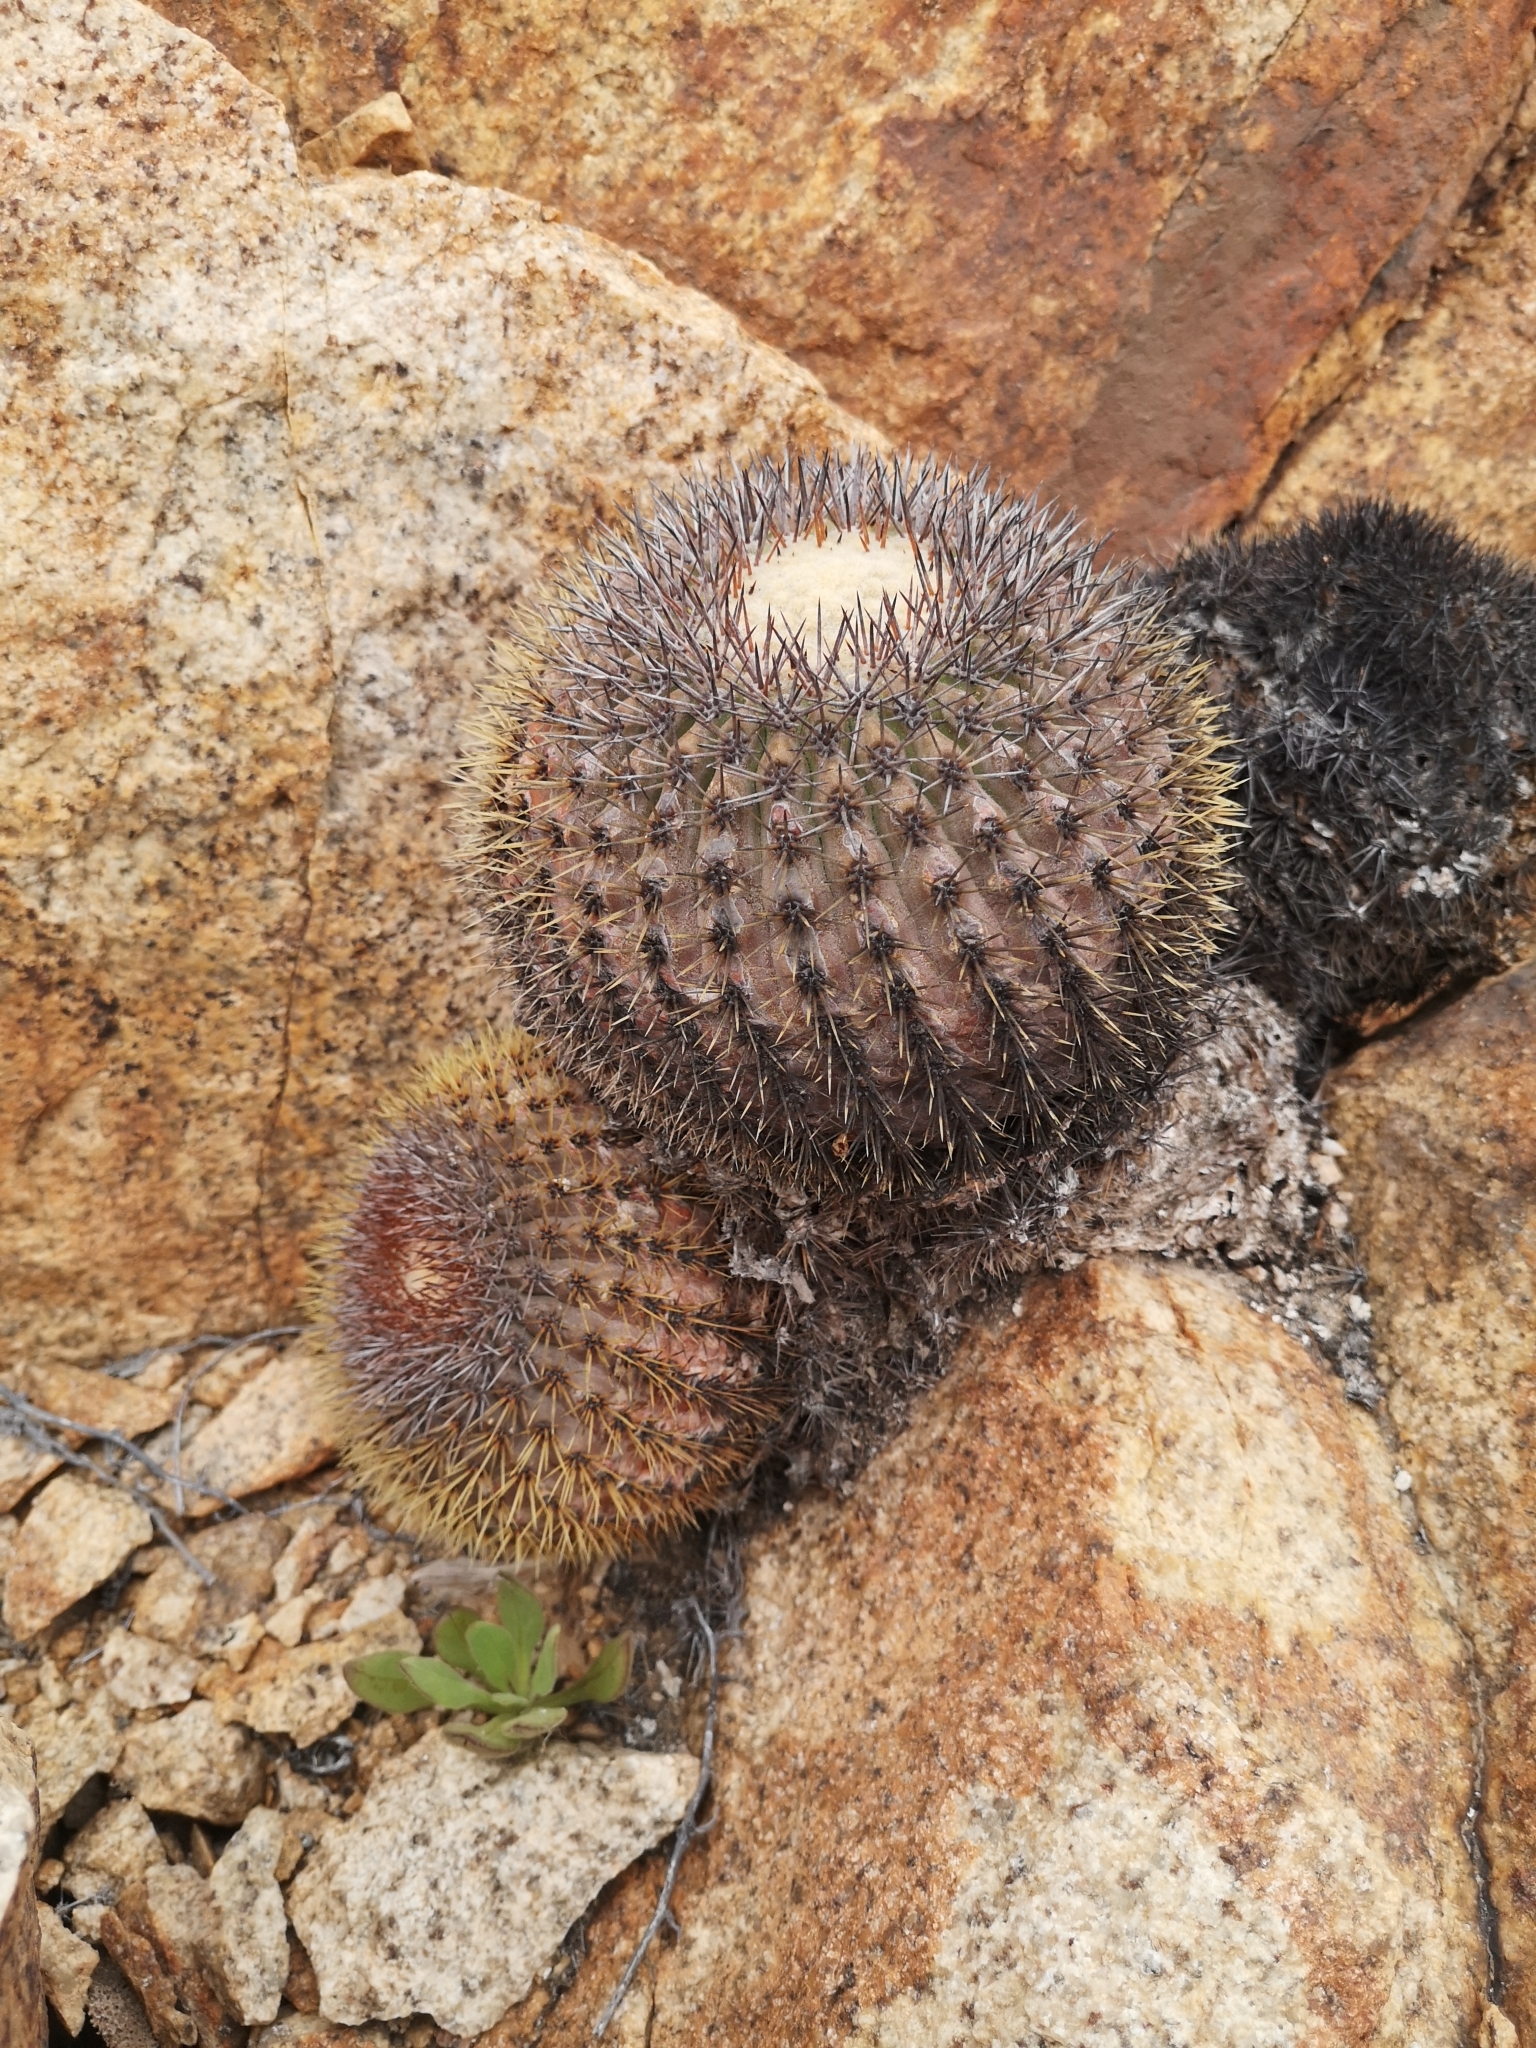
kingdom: Plantae
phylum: Tracheophyta
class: Magnoliopsida
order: Caryophyllales
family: Cactaceae
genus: Copiapoa
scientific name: Copiapoa serpentisulcata
